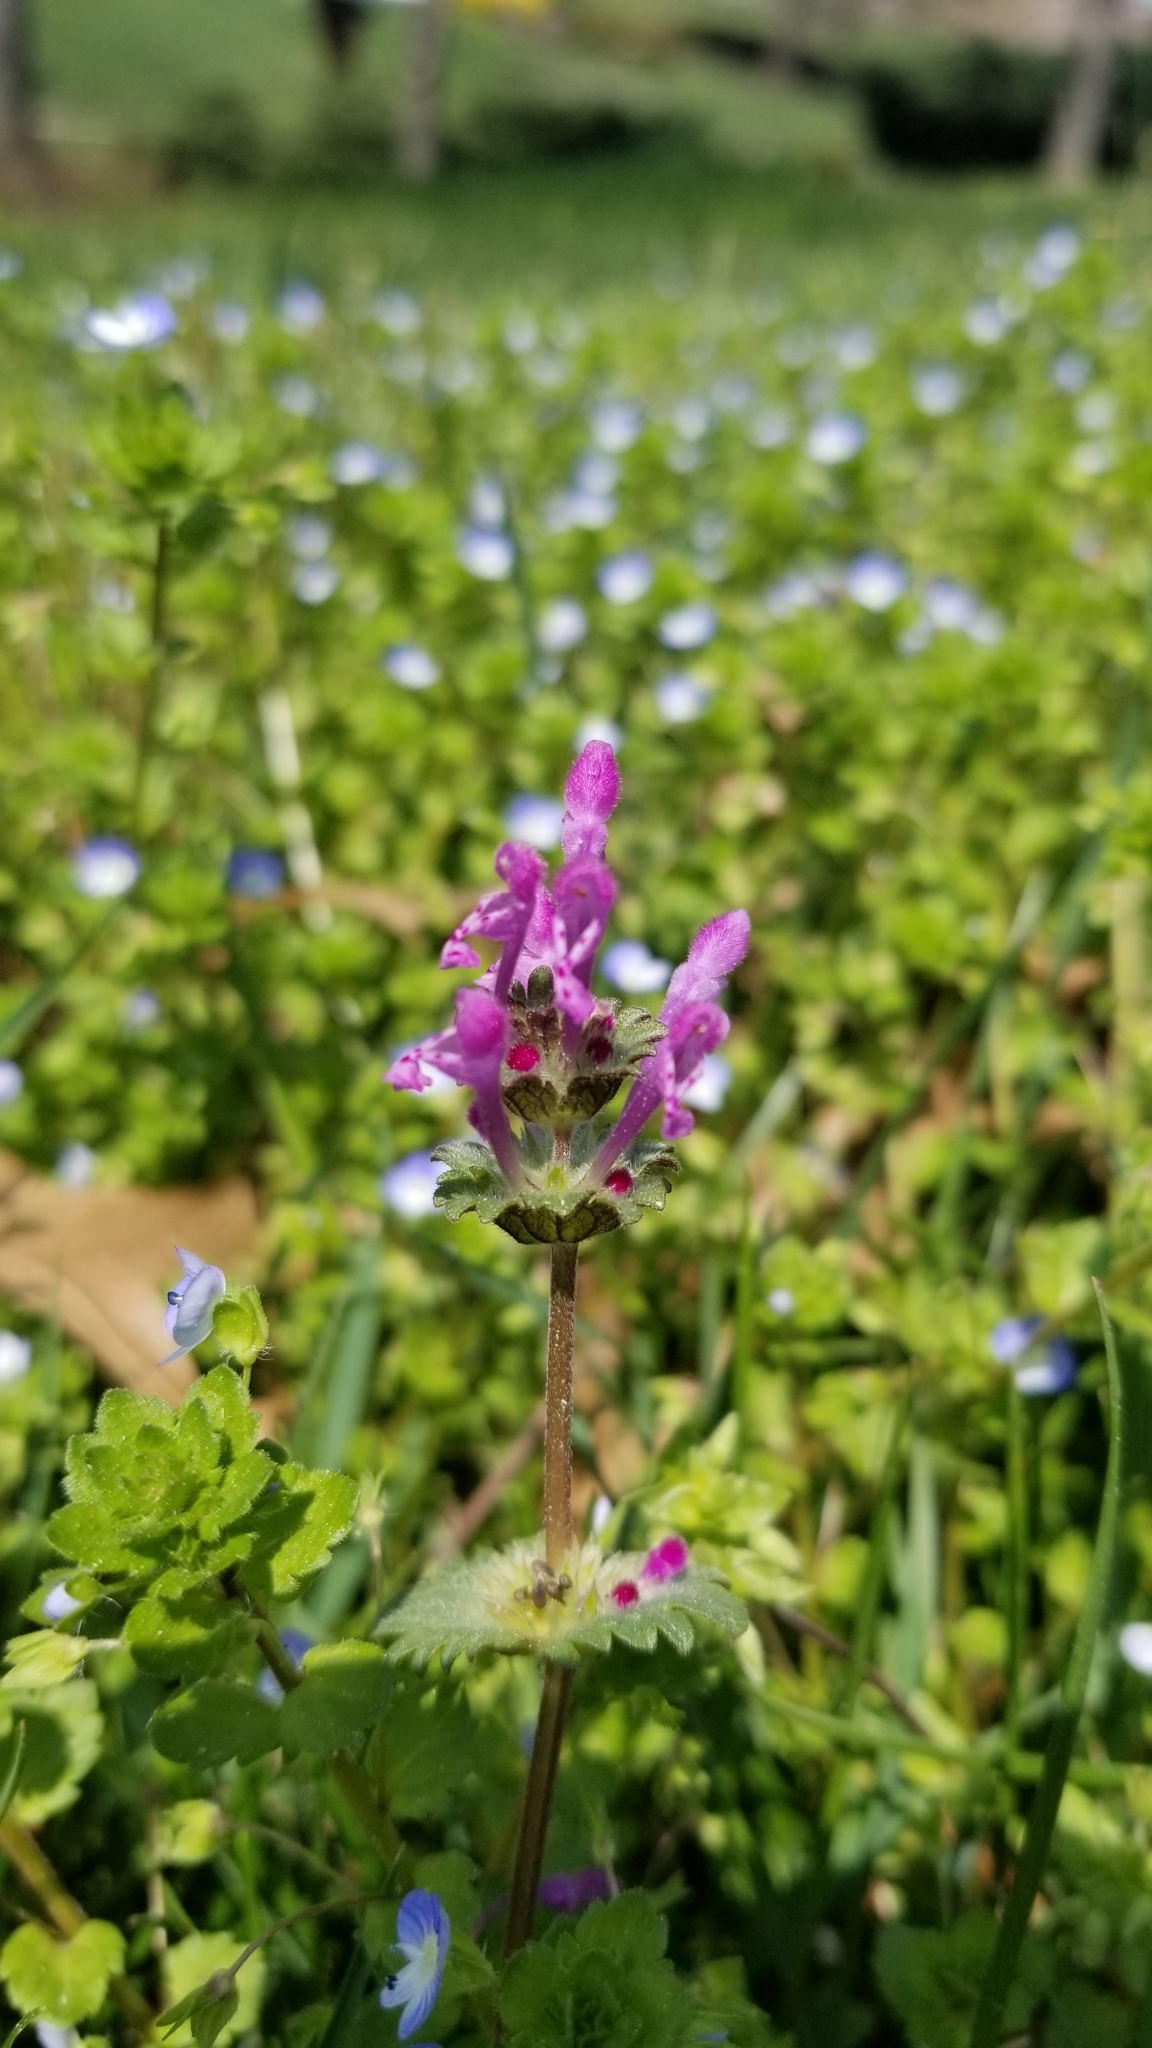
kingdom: Plantae
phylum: Tracheophyta
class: Magnoliopsida
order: Lamiales
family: Lamiaceae
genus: Lamium
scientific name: Lamium amplexicaule
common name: Henbit dead-nettle
